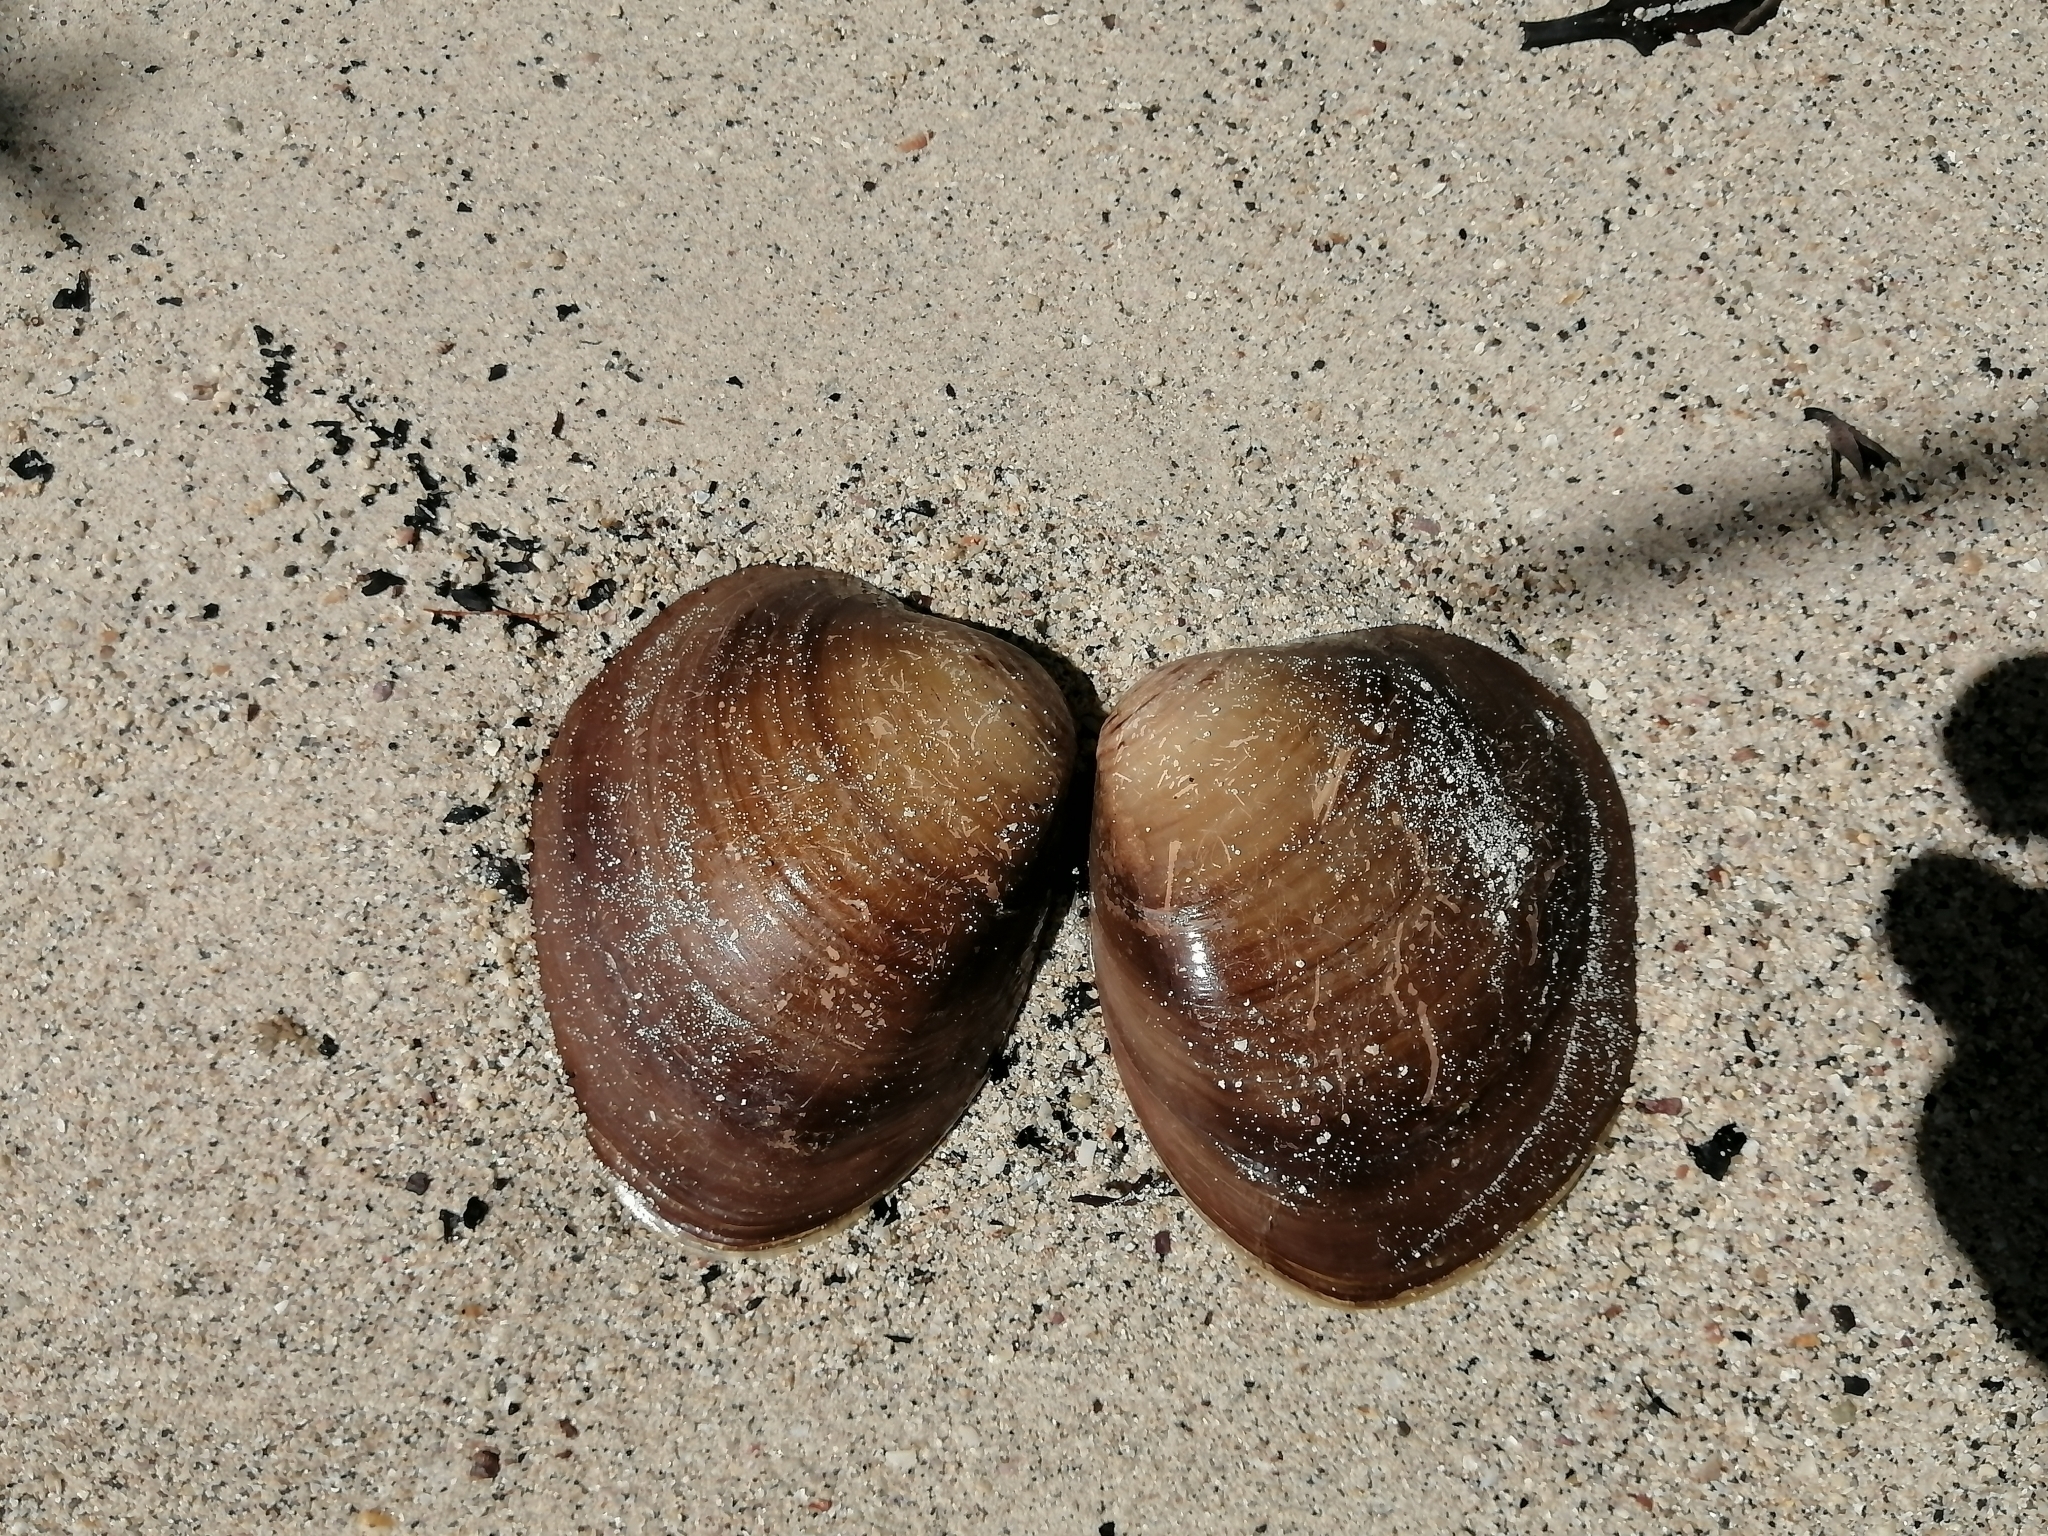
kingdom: Animalia
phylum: Mollusca
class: Bivalvia
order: Venerida
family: Veneridae
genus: Megapitaria
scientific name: Megapitaria squalida
